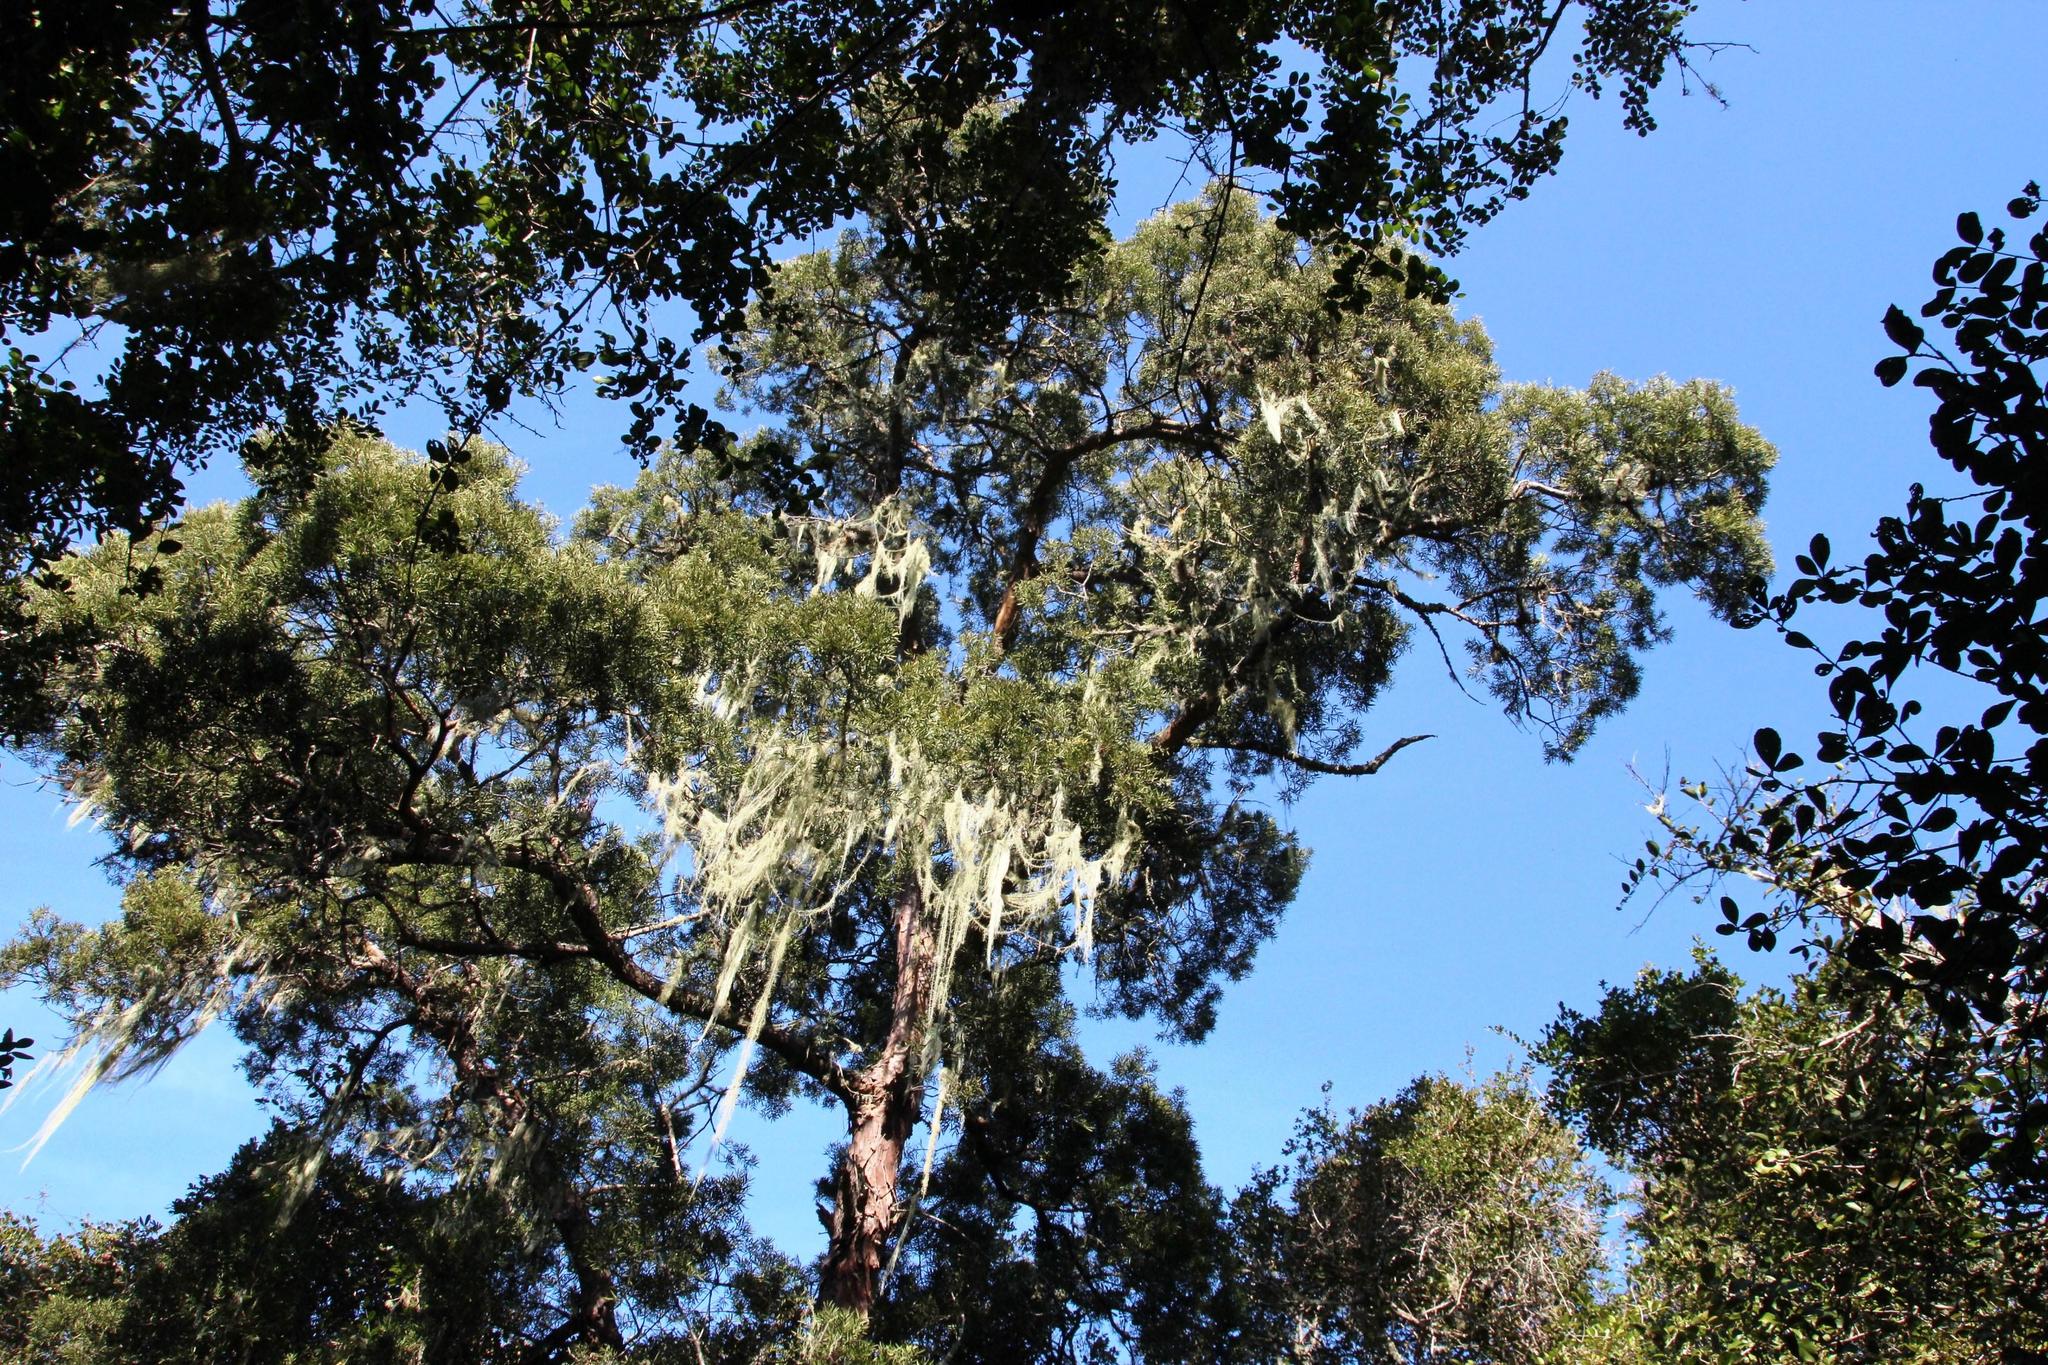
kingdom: Plantae
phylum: Tracheophyta
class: Pinopsida
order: Pinales
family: Podocarpaceae
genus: Afrocarpus
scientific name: Afrocarpus falcatus
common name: Bastard yellowwood
